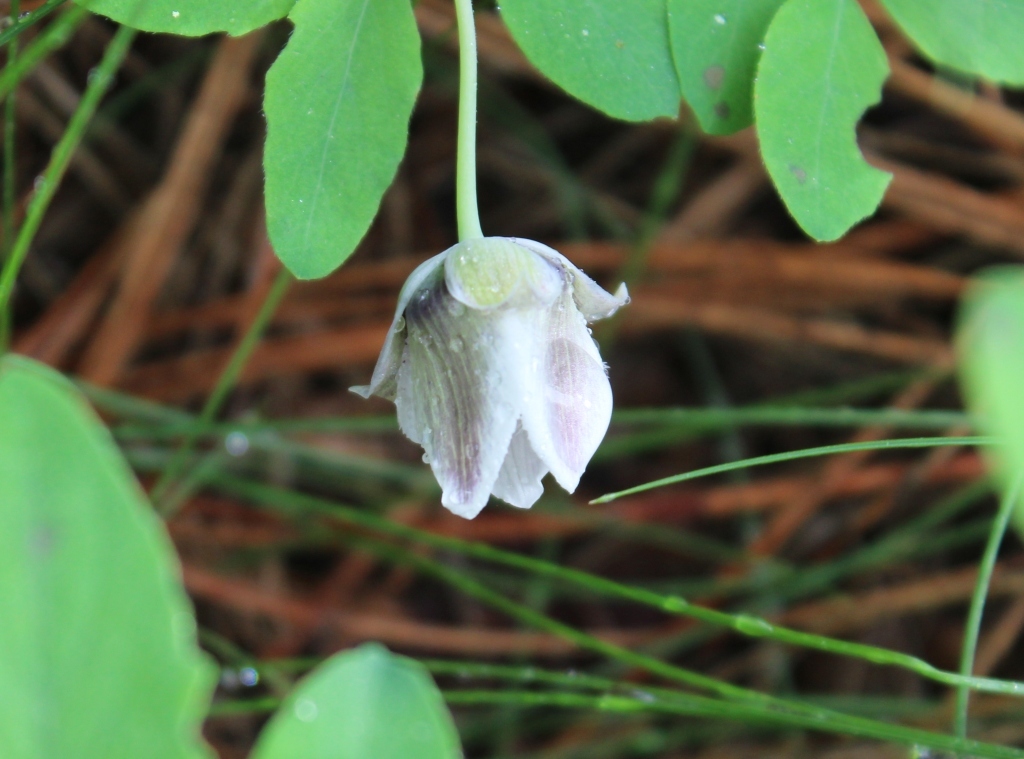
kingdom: Plantae
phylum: Tracheophyta
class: Liliopsida
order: Liliales
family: Liliaceae
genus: Calochortus
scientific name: Calochortus elegans
